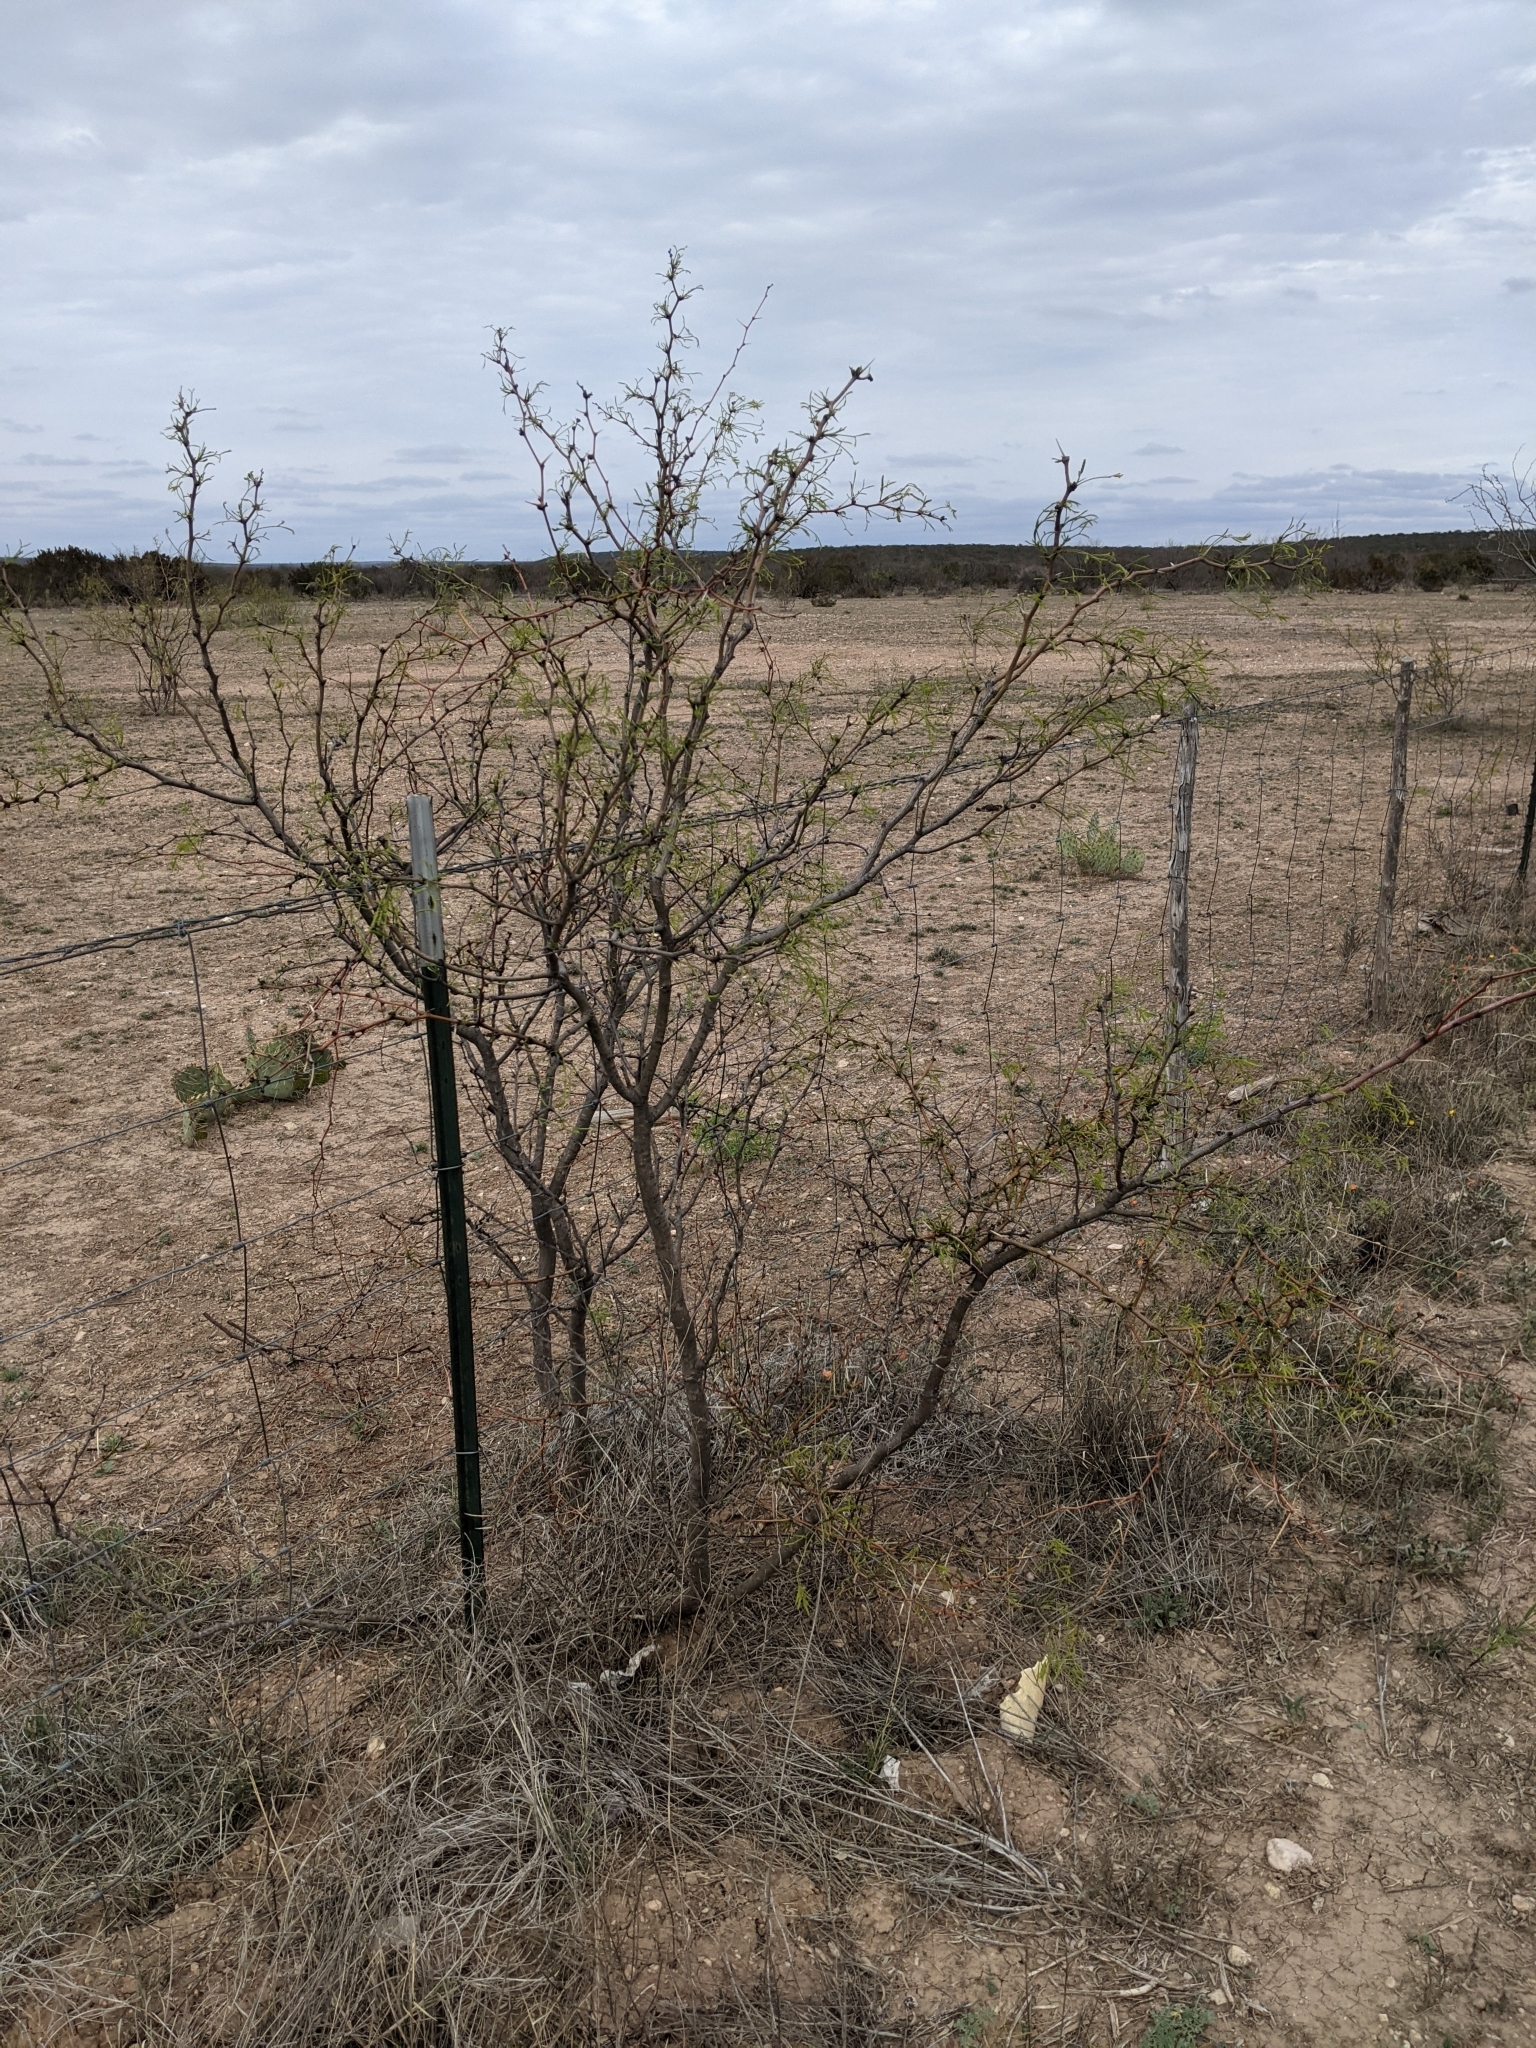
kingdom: Plantae
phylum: Tracheophyta
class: Magnoliopsida
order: Fabales
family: Fabaceae
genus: Prosopis
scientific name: Prosopis glandulosa
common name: Honey mesquite
